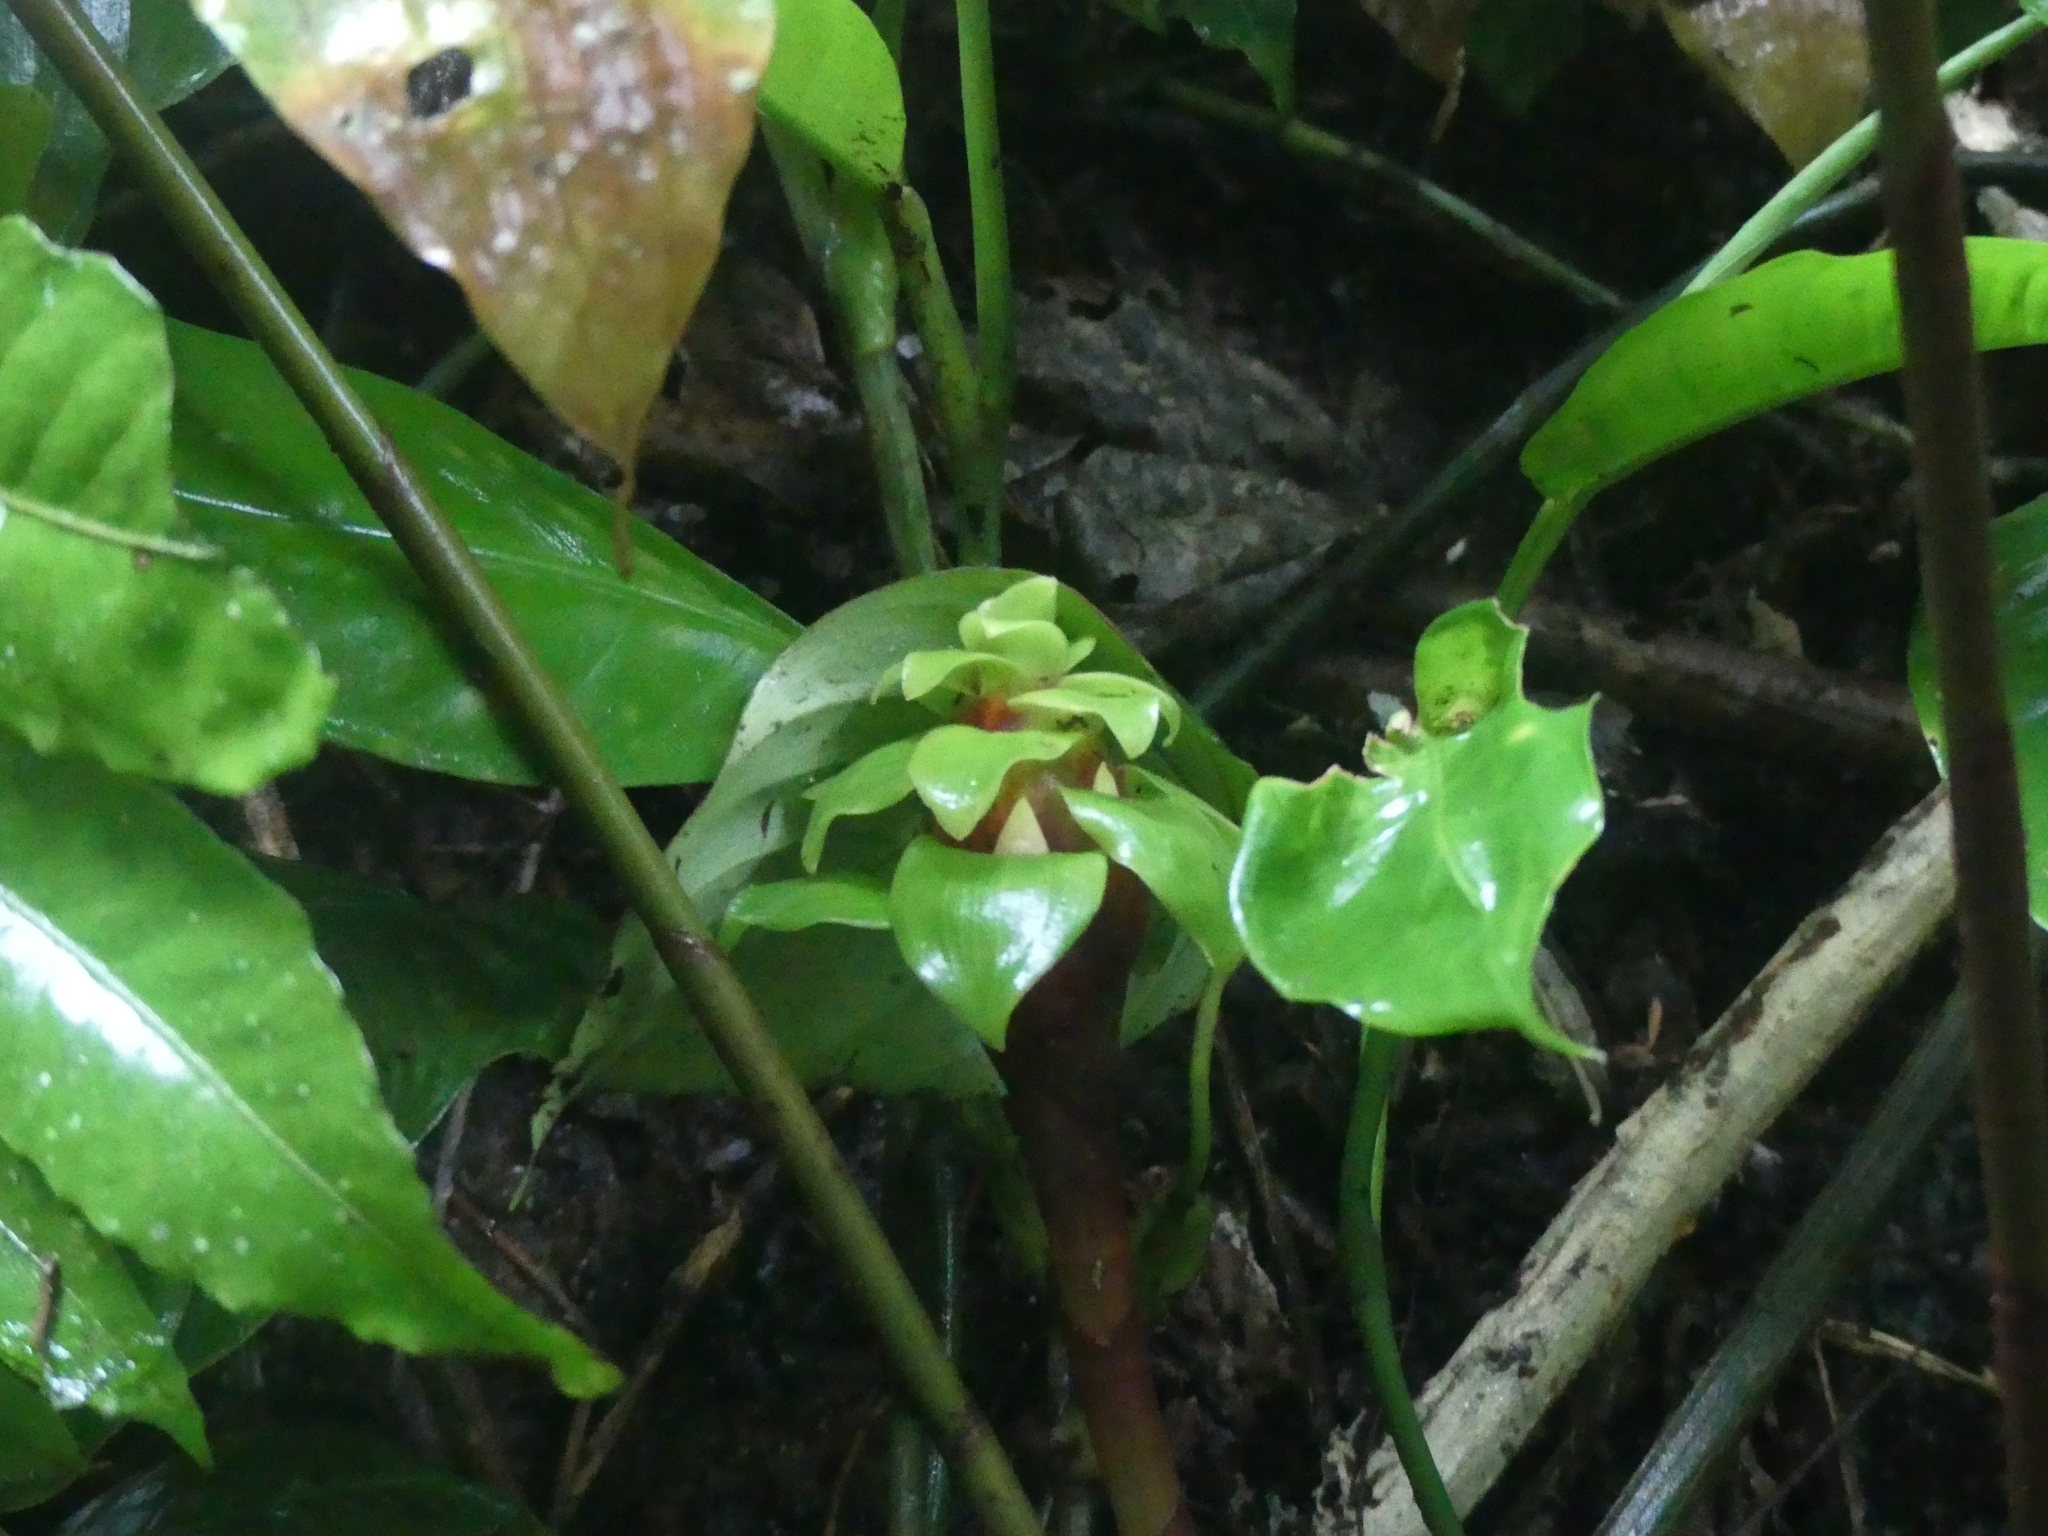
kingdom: Plantae
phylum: Tracheophyta
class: Liliopsida
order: Zingiberales
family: Costaceae
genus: Costus
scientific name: Costus claviger
